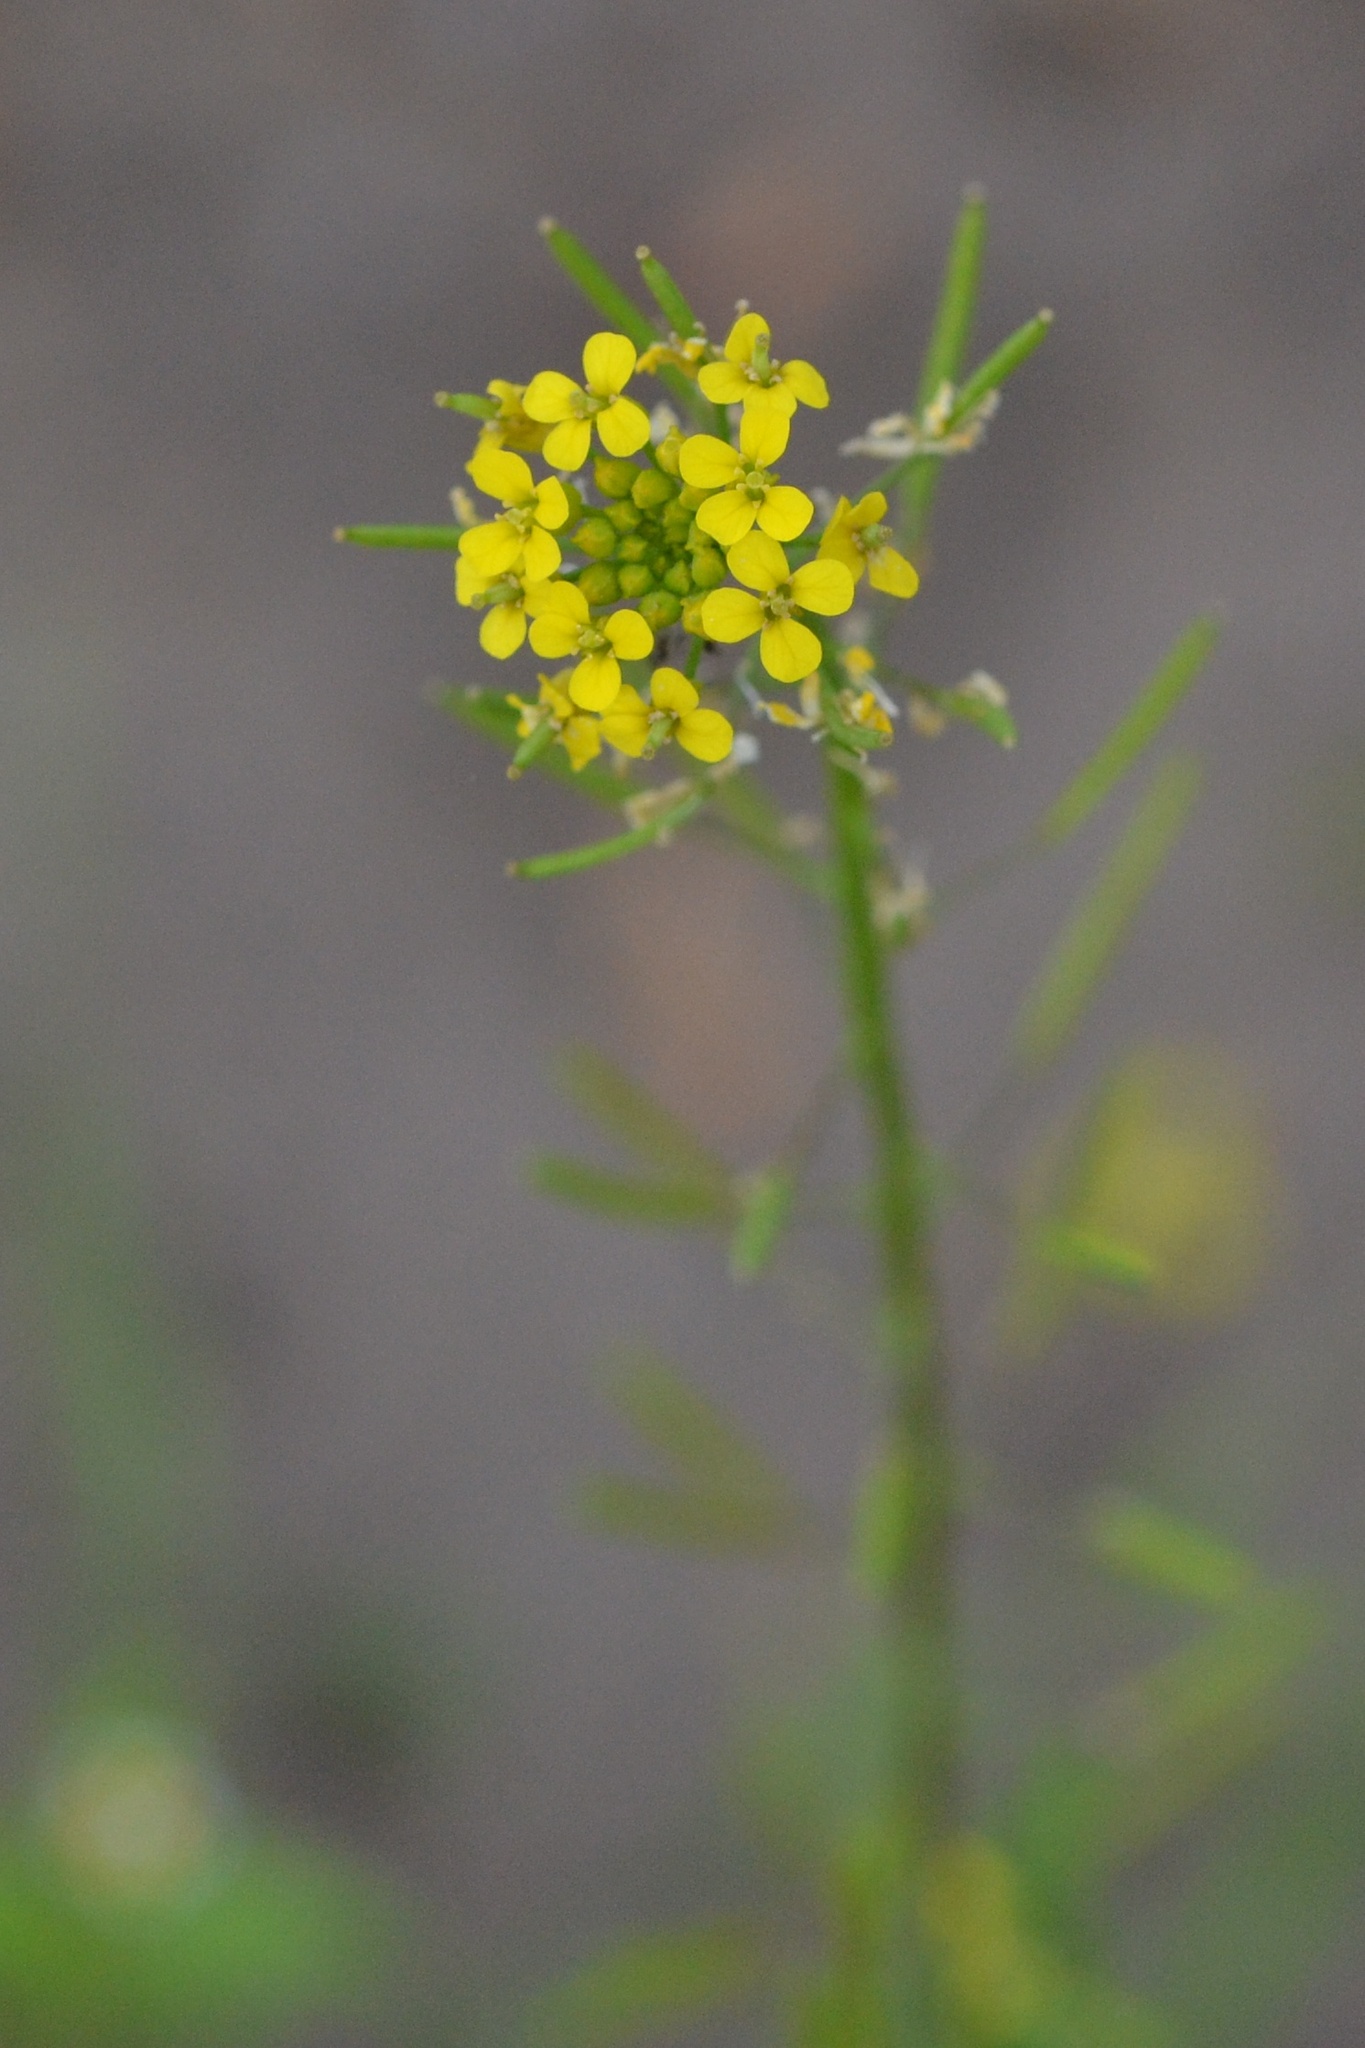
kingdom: Plantae
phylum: Tracheophyta
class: Magnoliopsida
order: Brassicales
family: Brassicaceae
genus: Erysimum
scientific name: Erysimum cheiranthoides
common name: Treacle mustard
